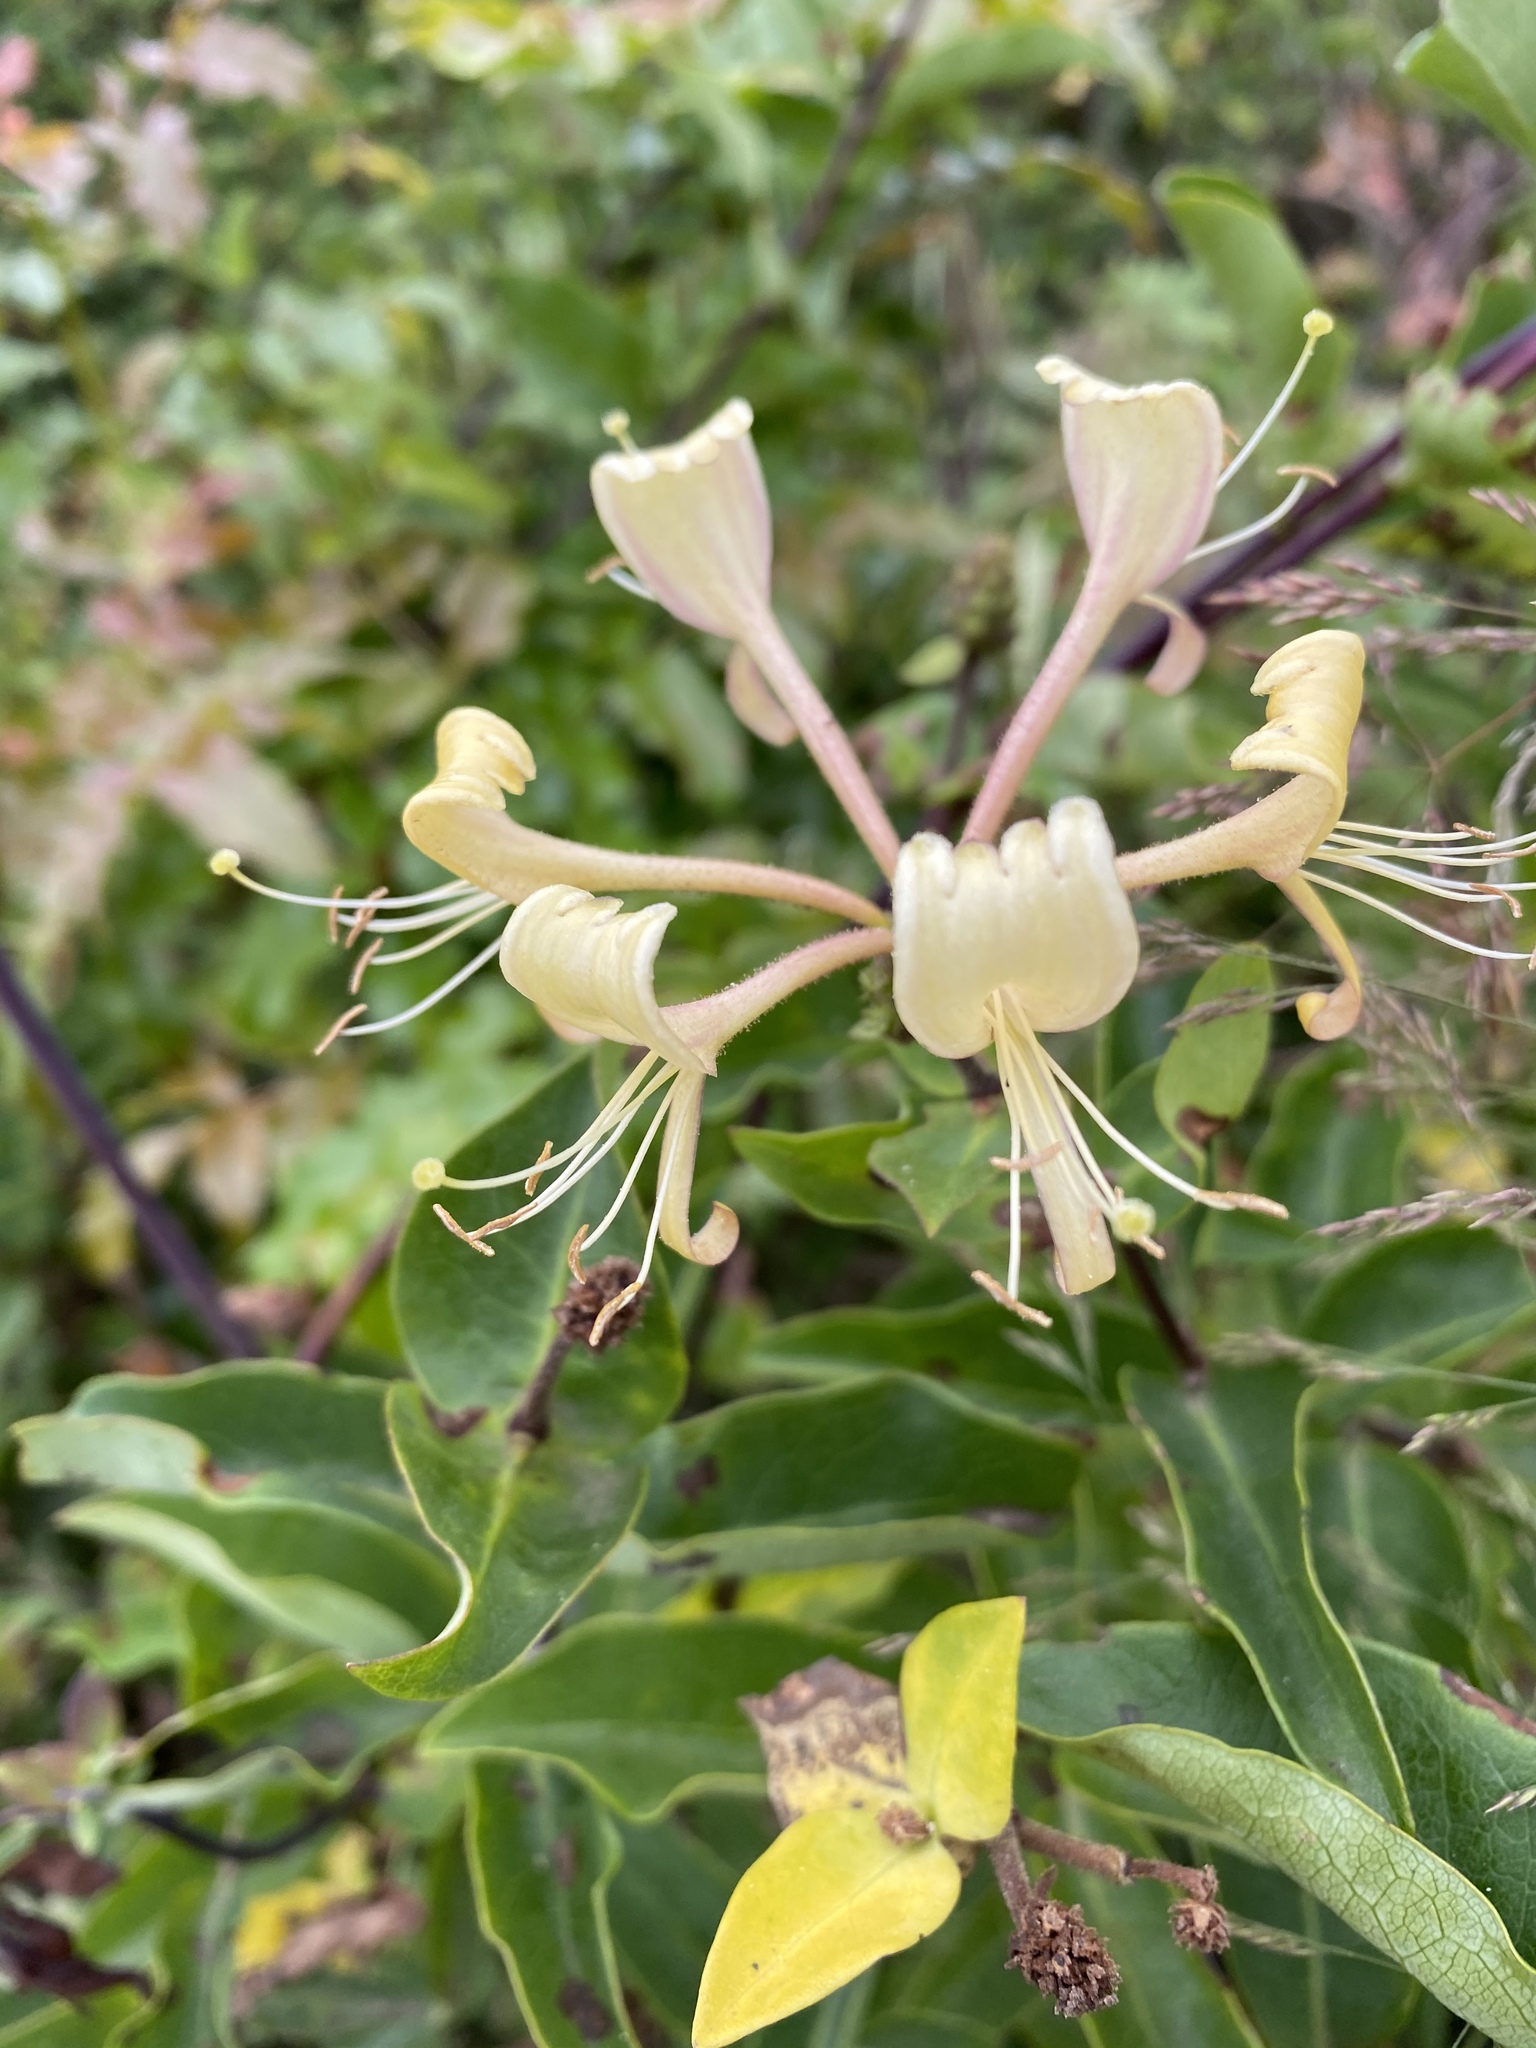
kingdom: Plantae
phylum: Tracheophyta
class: Magnoliopsida
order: Dipsacales
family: Caprifoliaceae
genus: Lonicera
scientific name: Lonicera periclymenum
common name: European honeysuckle
